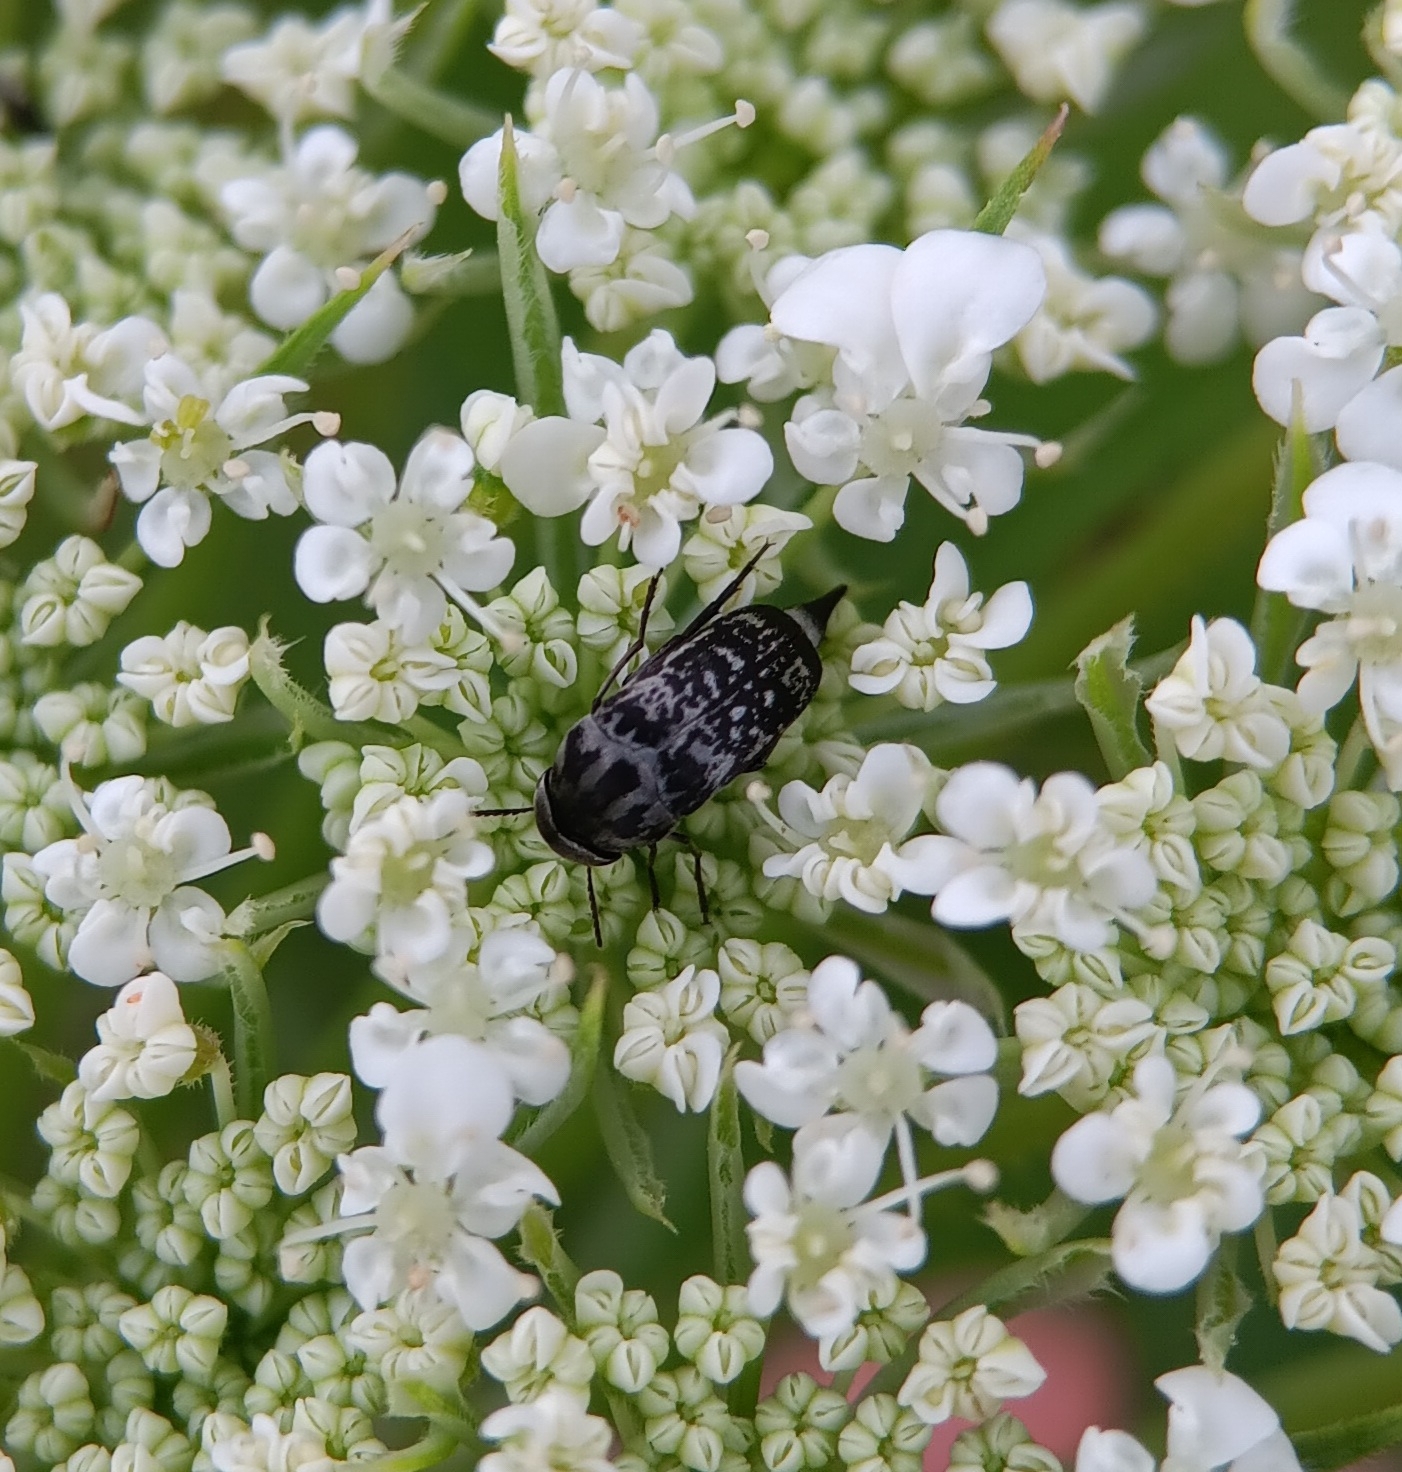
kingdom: Animalia
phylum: Arthropoda
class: Insecta
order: Coleoptera
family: Mordellidae
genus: Mordella
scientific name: Mordella marginata
